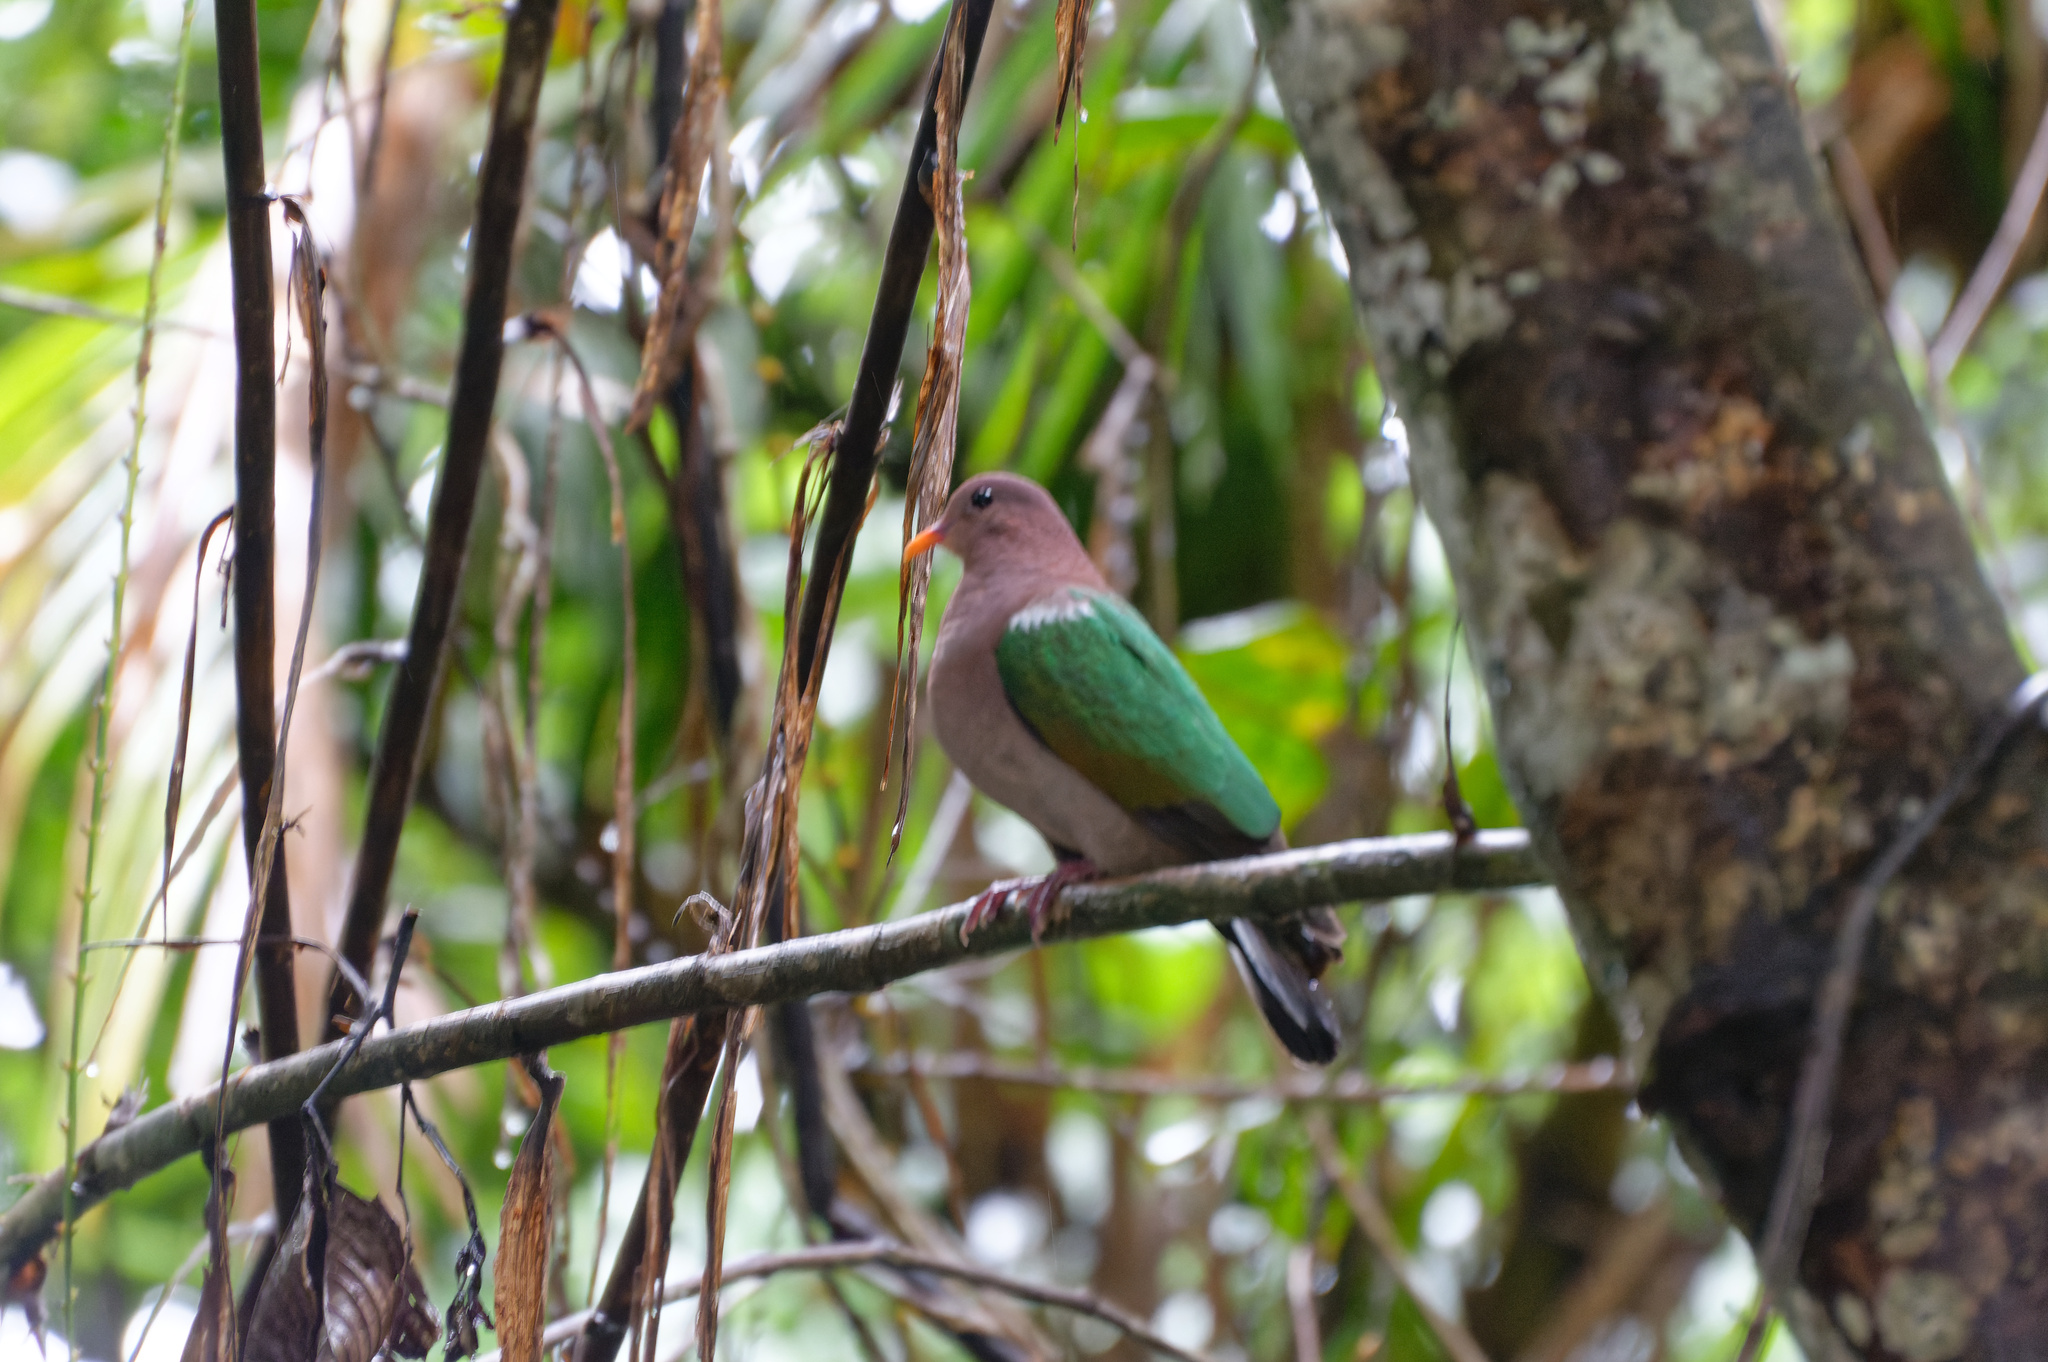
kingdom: Animalia
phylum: Chordata
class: Aves
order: Columbiformes
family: Columbidae
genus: Chalcophaps
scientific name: Chalcophaps longirostris
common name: Pacific emerald dove
